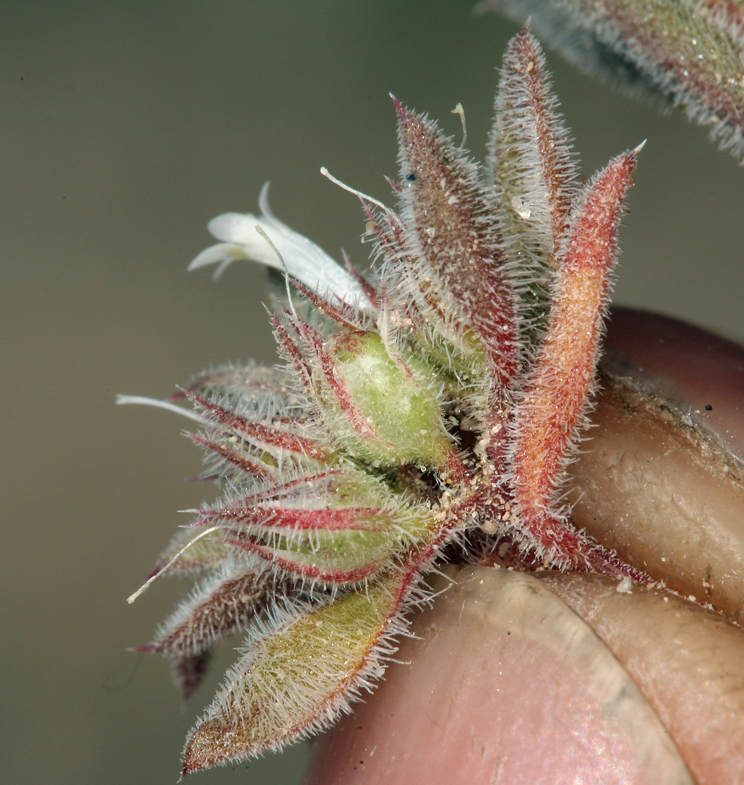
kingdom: Plantae
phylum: Tracheophyta
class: Magnoliopsida
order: Ericales
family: Polemoniaceae
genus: Loeseliastrum
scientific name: Loeseliastrum depressum
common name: Depressed ipomopsis
